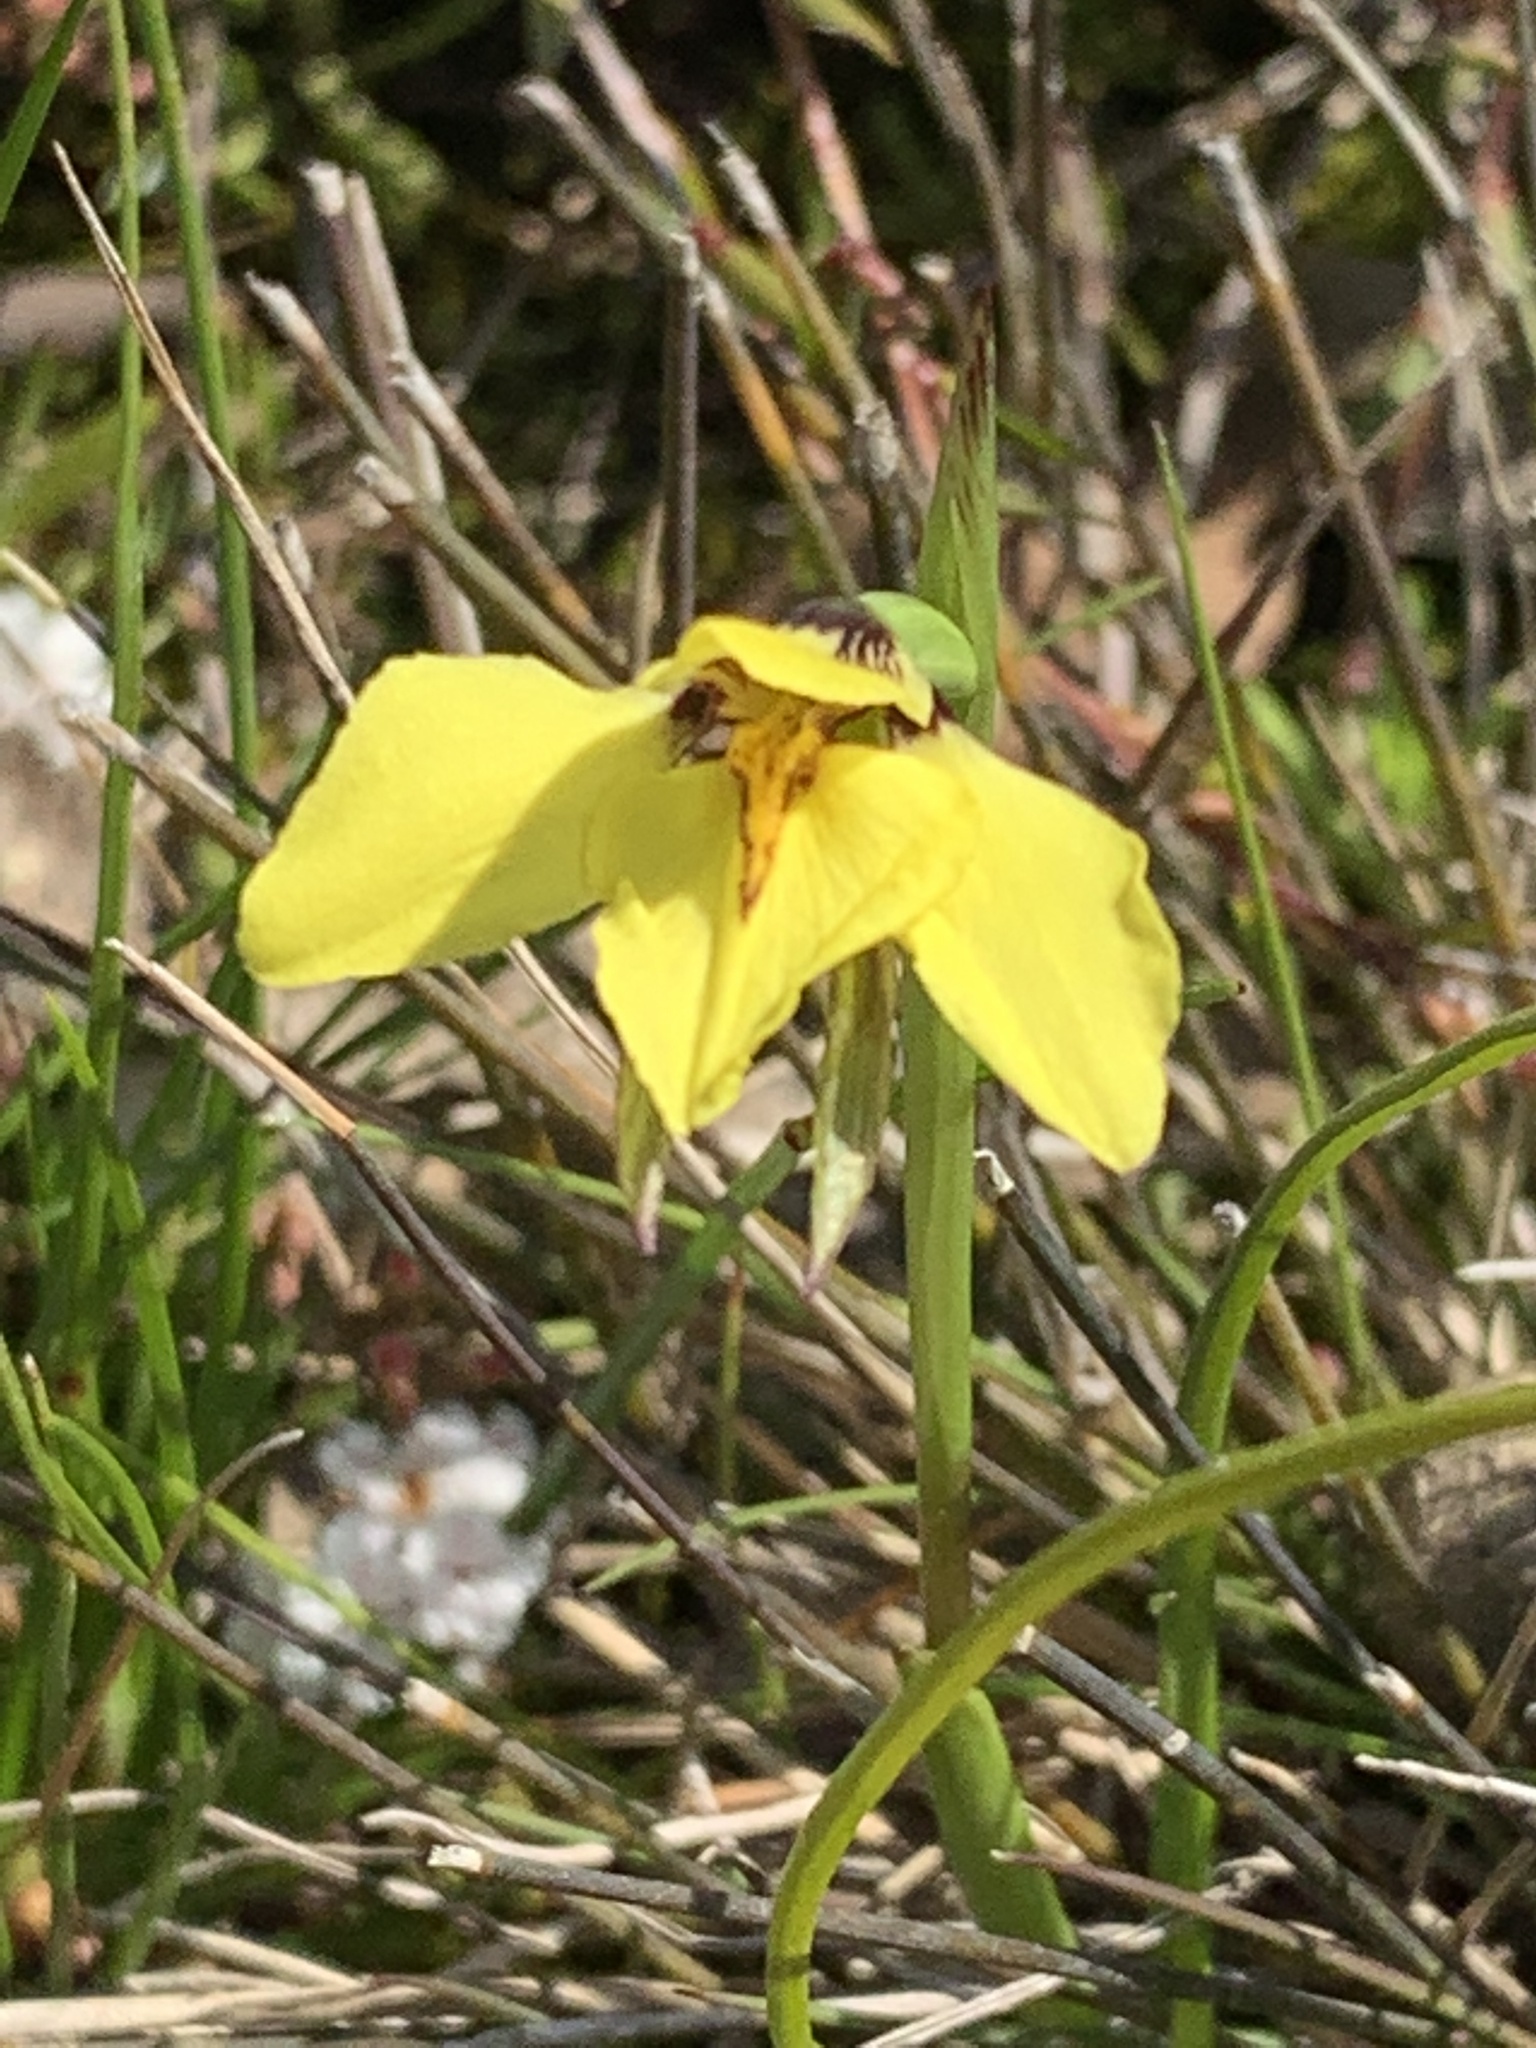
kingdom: Plantae
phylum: Tracheophyta
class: Liliopsida
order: Asparagales
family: Orchidaceae
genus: Diuris
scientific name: Diuris chryseopsis
